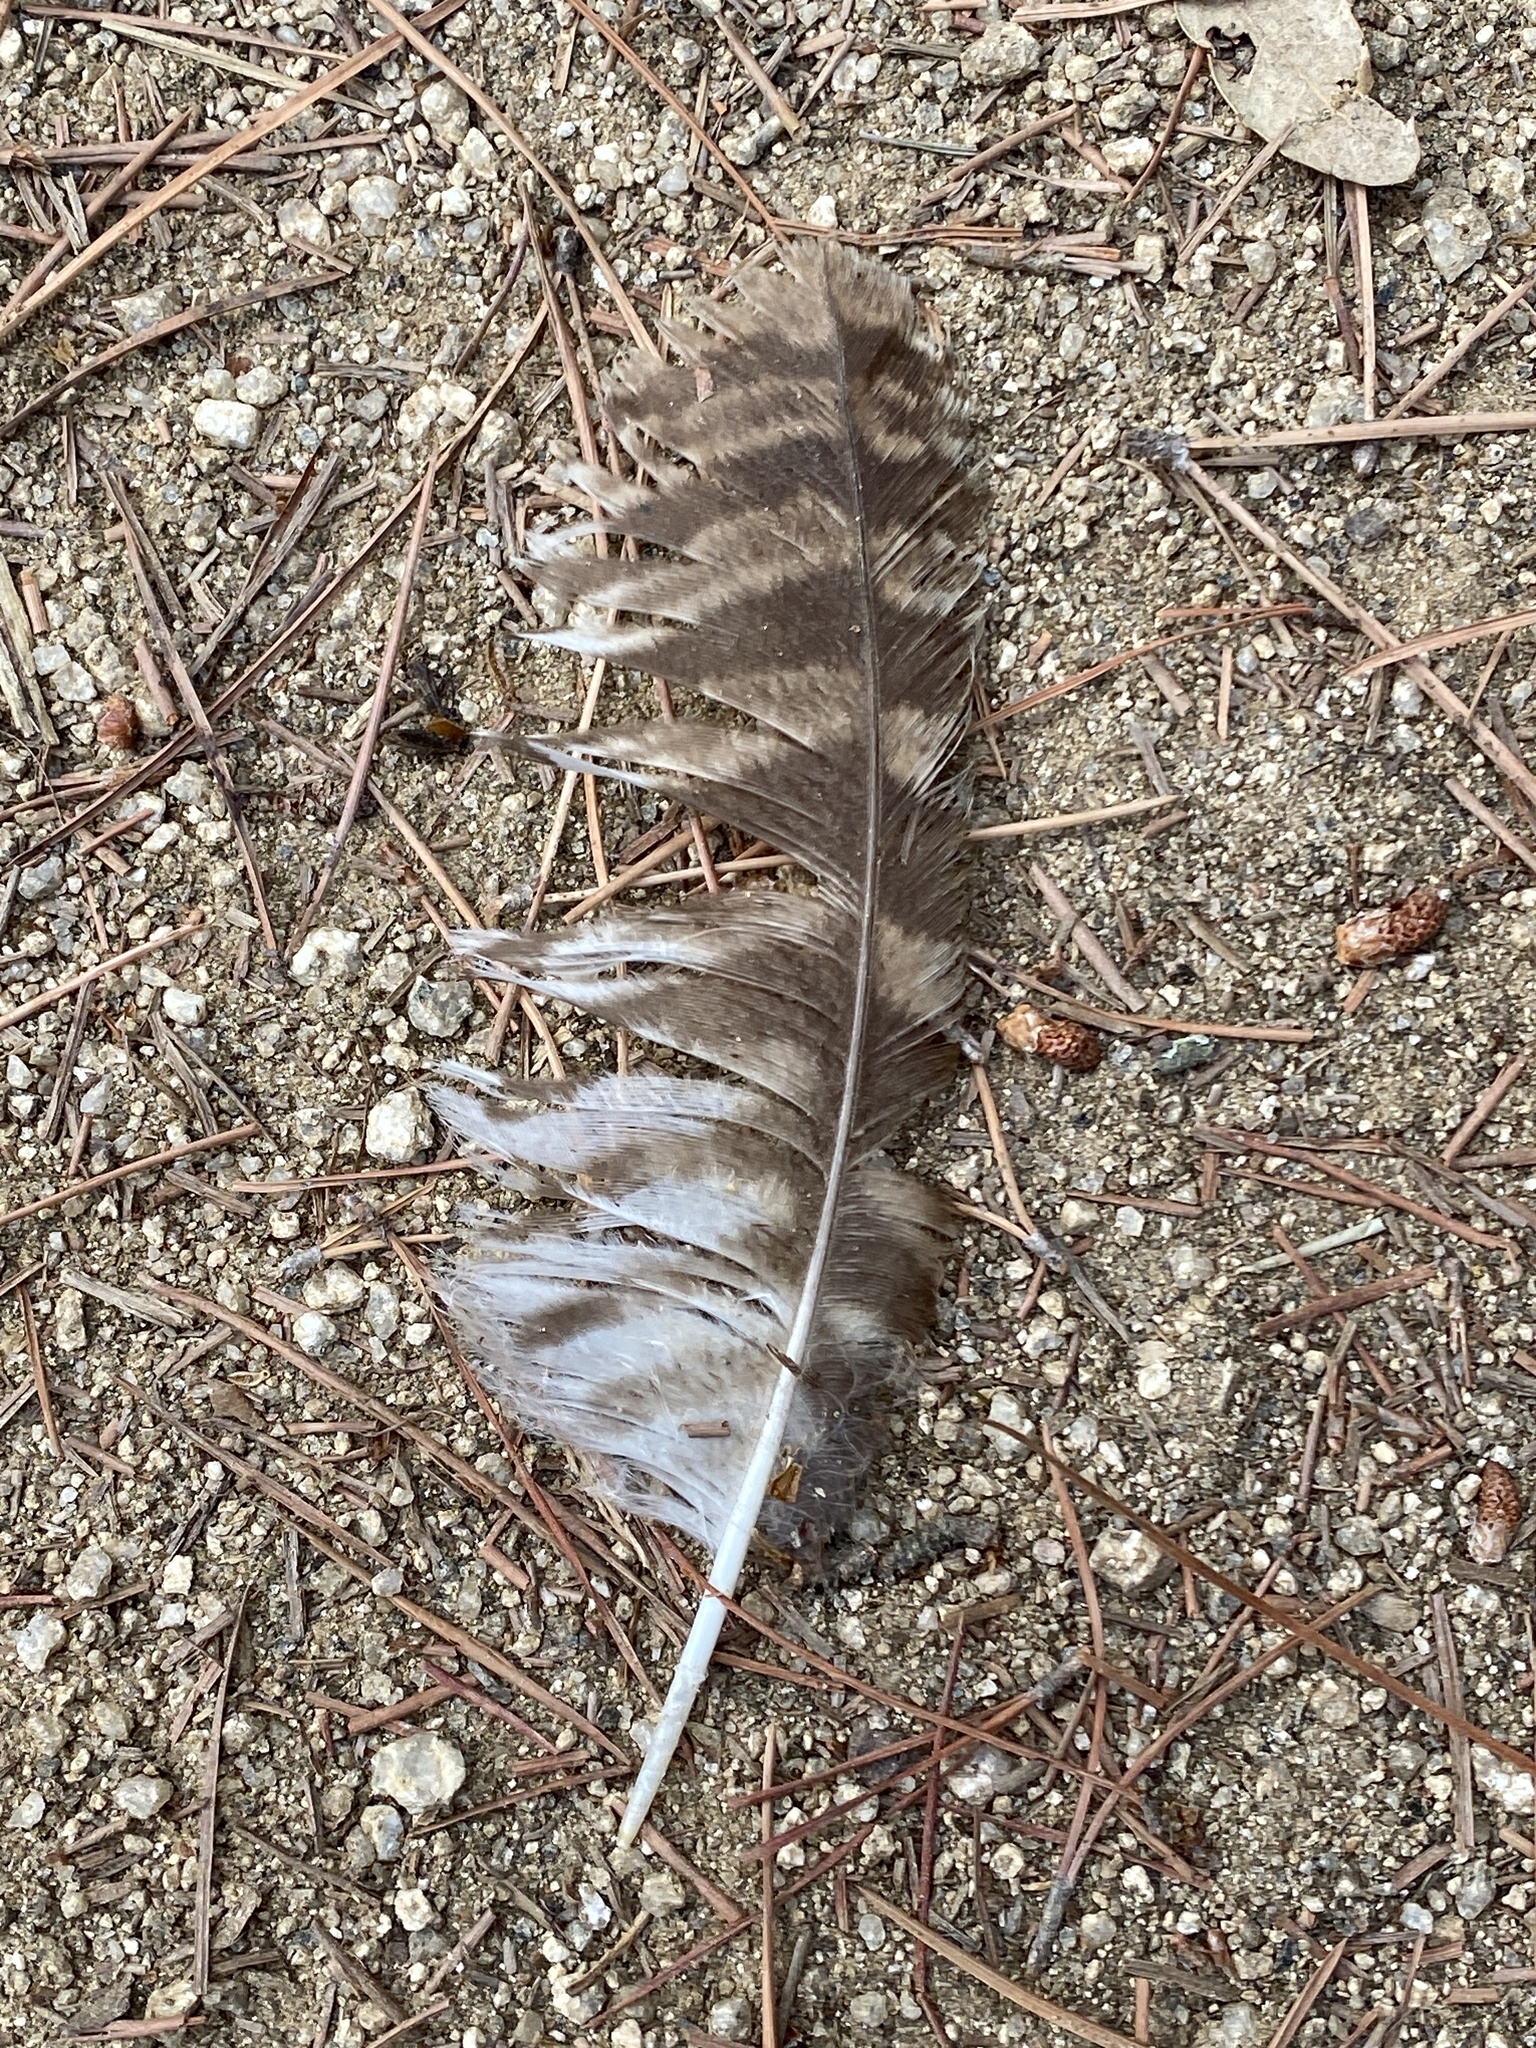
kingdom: Animalia
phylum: Chordata
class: Aves
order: Strigiformes
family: Strigidae
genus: Strix
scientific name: Strix aluco
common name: Tawny owl
